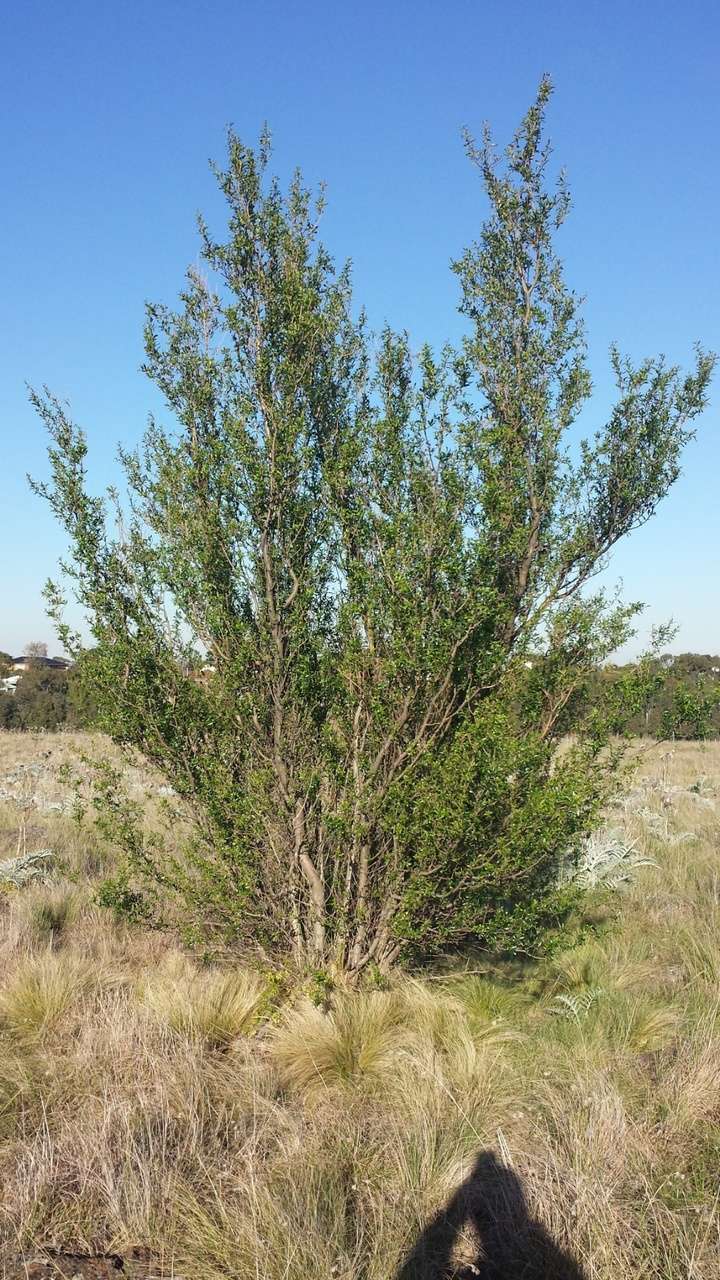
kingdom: Plantae
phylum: Tracheophyta
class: Magnoliopsida
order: Apiales
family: Pittosporaceae
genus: Bursaria
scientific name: Bursaria spinosa
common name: Australian blackthorn
